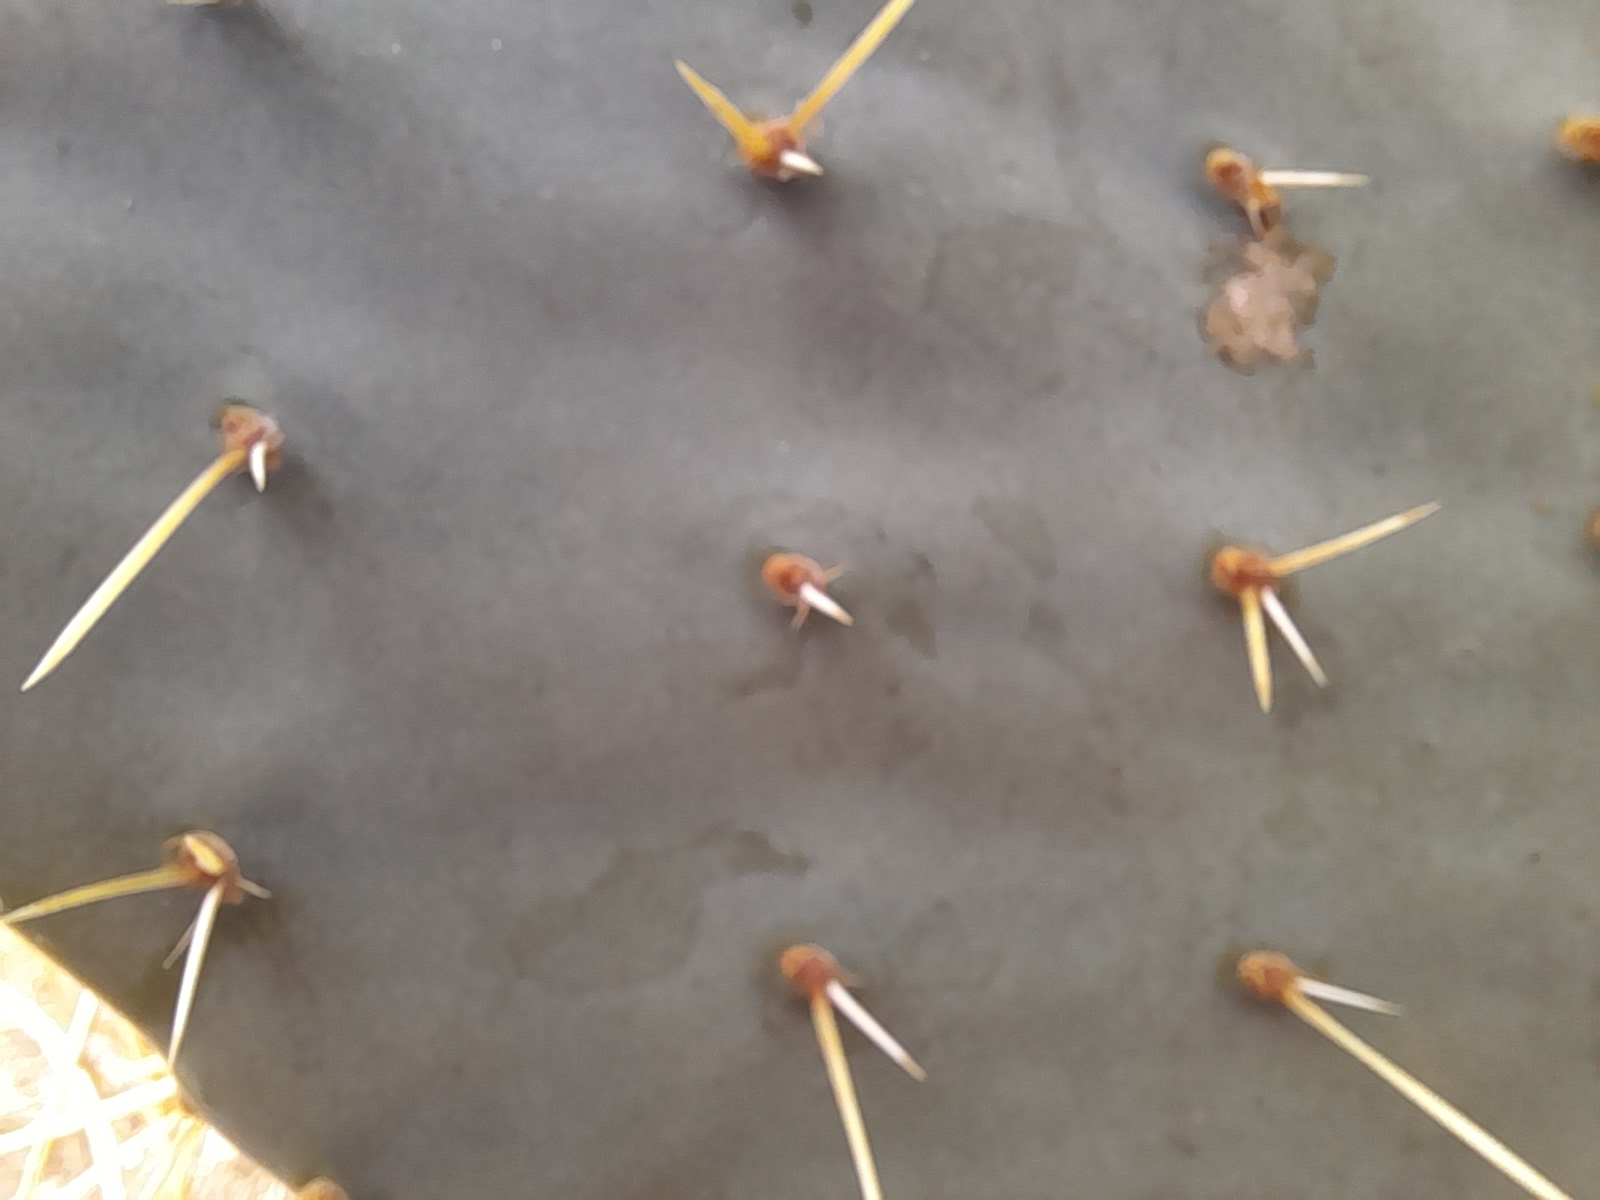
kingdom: Plantae
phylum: Tracheophyta
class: Magnoliopsida
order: Caryophyllales
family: Cactaceae
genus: Opuntia
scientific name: Opuntia orbiculata
